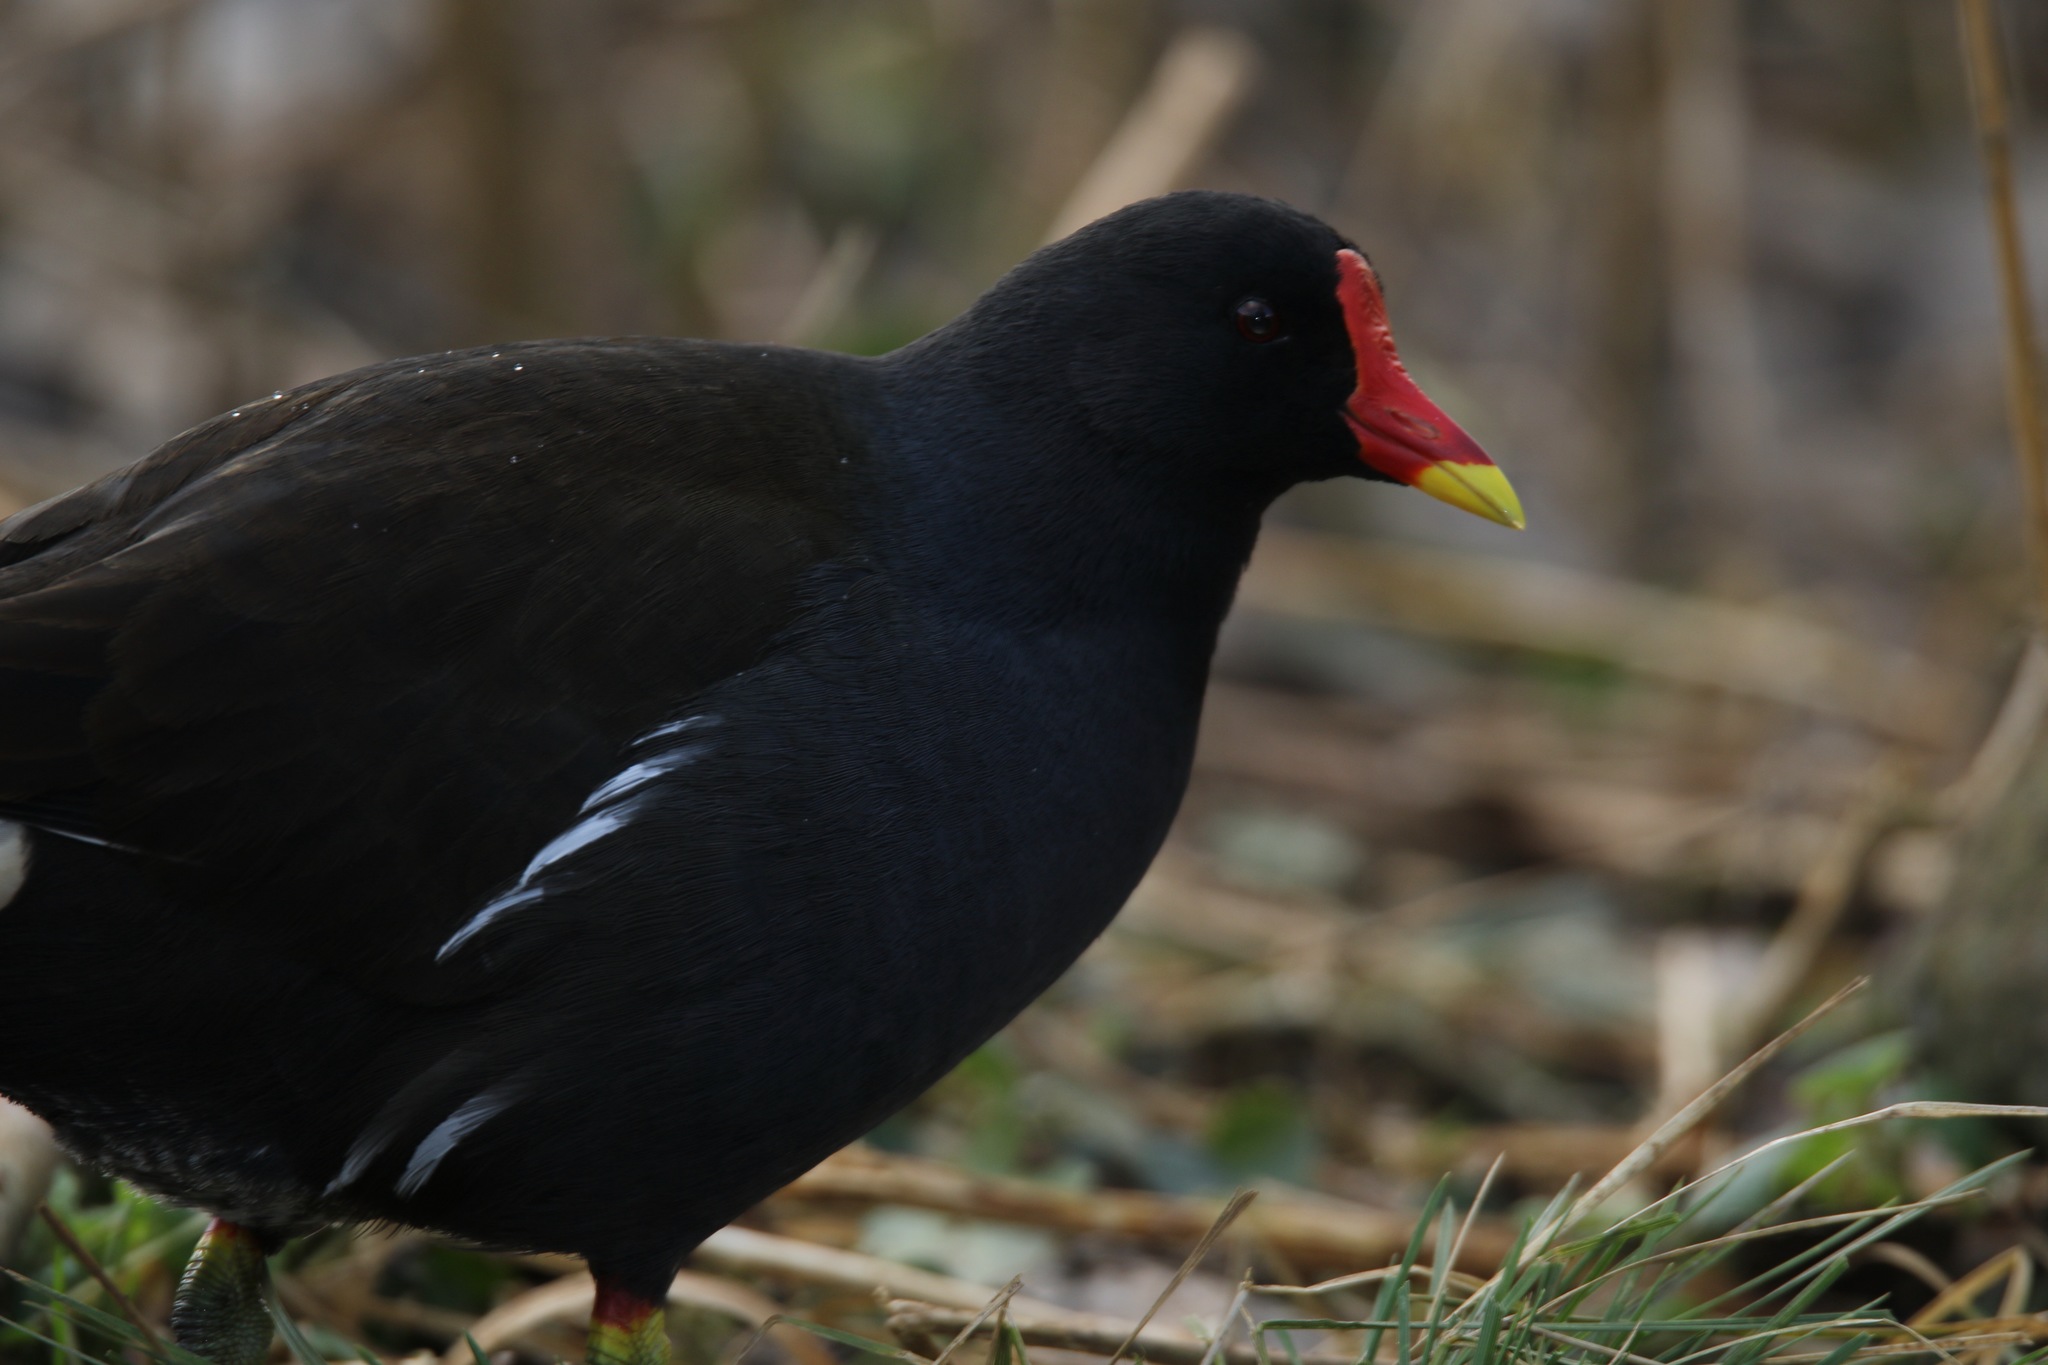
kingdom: Animalia
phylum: Chordata
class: Aves
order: Gruiformes
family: Rallidae
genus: Gallinula
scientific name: Gallinula chloropus
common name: Common moorhen
